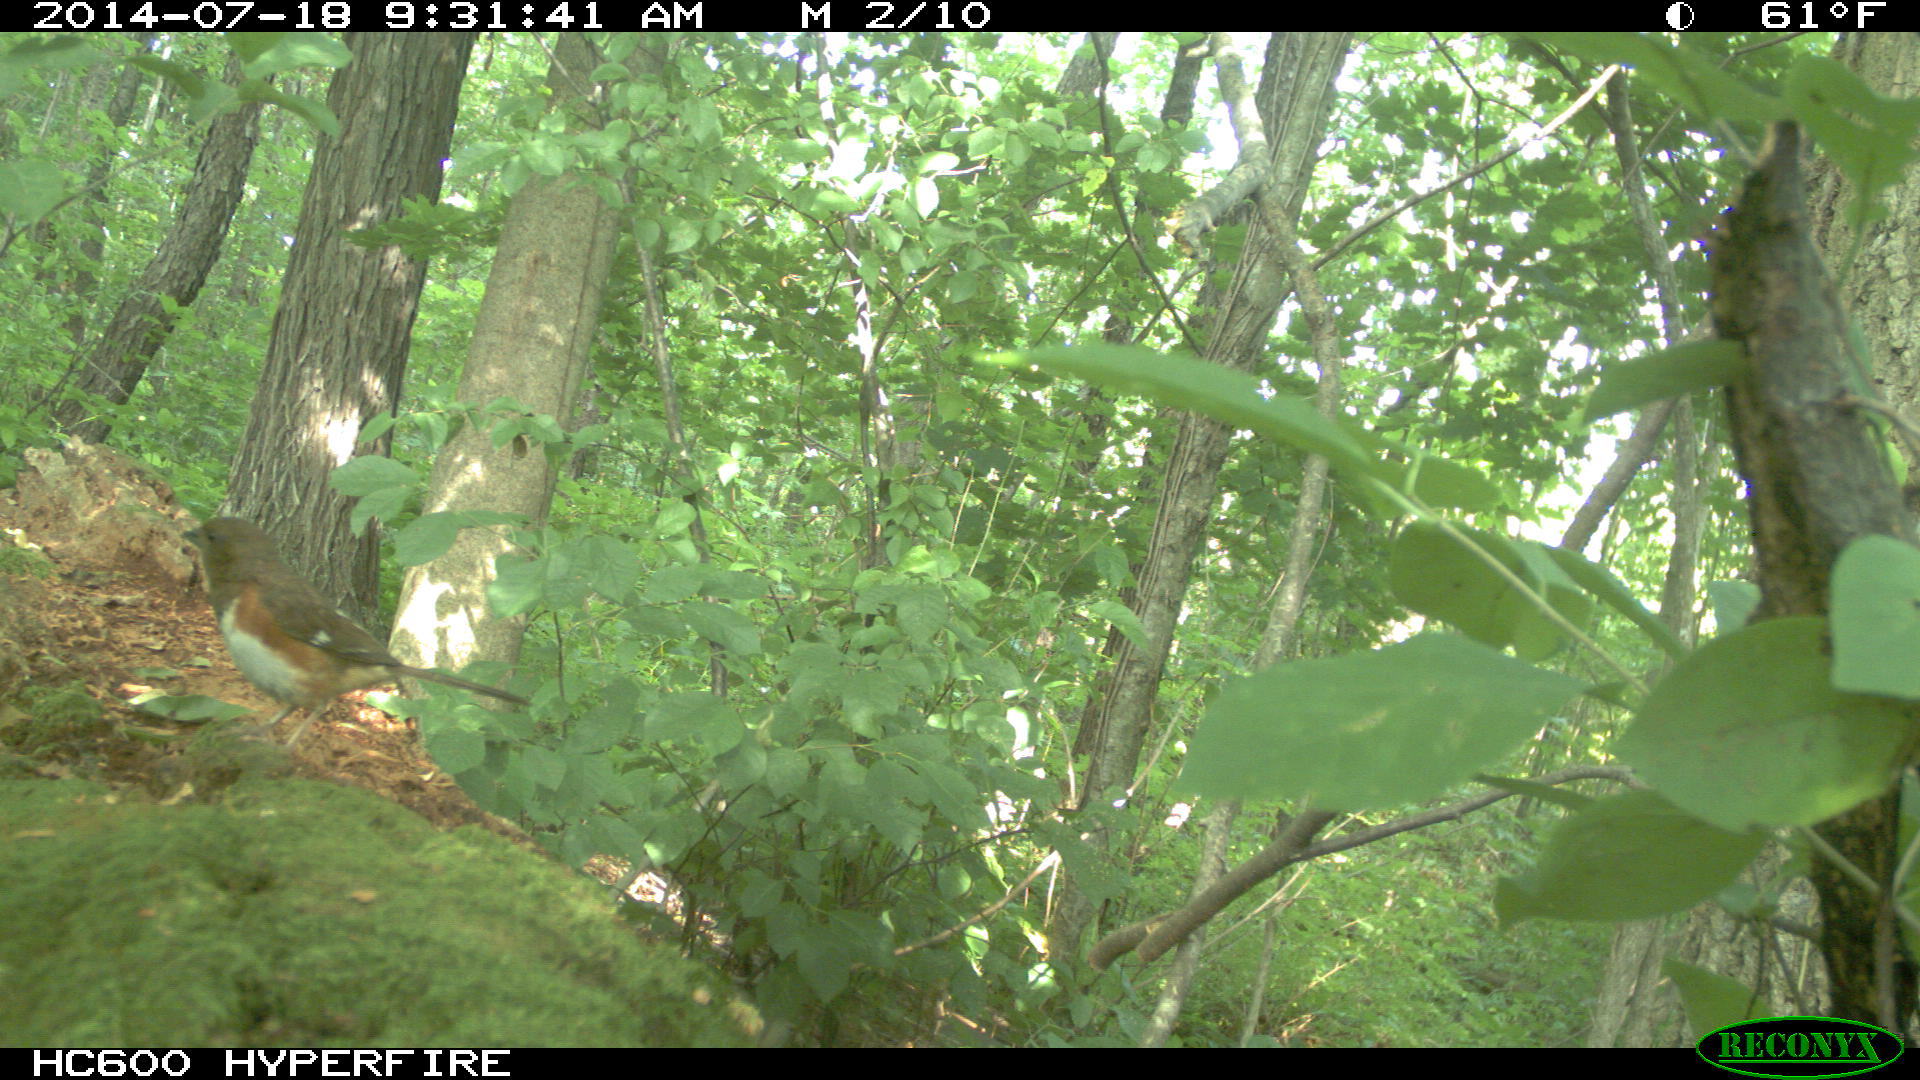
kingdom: Animalia
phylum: Chordata
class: Aves
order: Passeriformes
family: Passerellidae
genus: Pipilo
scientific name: Pipilo erythrophthalmus
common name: Eastern towhee
